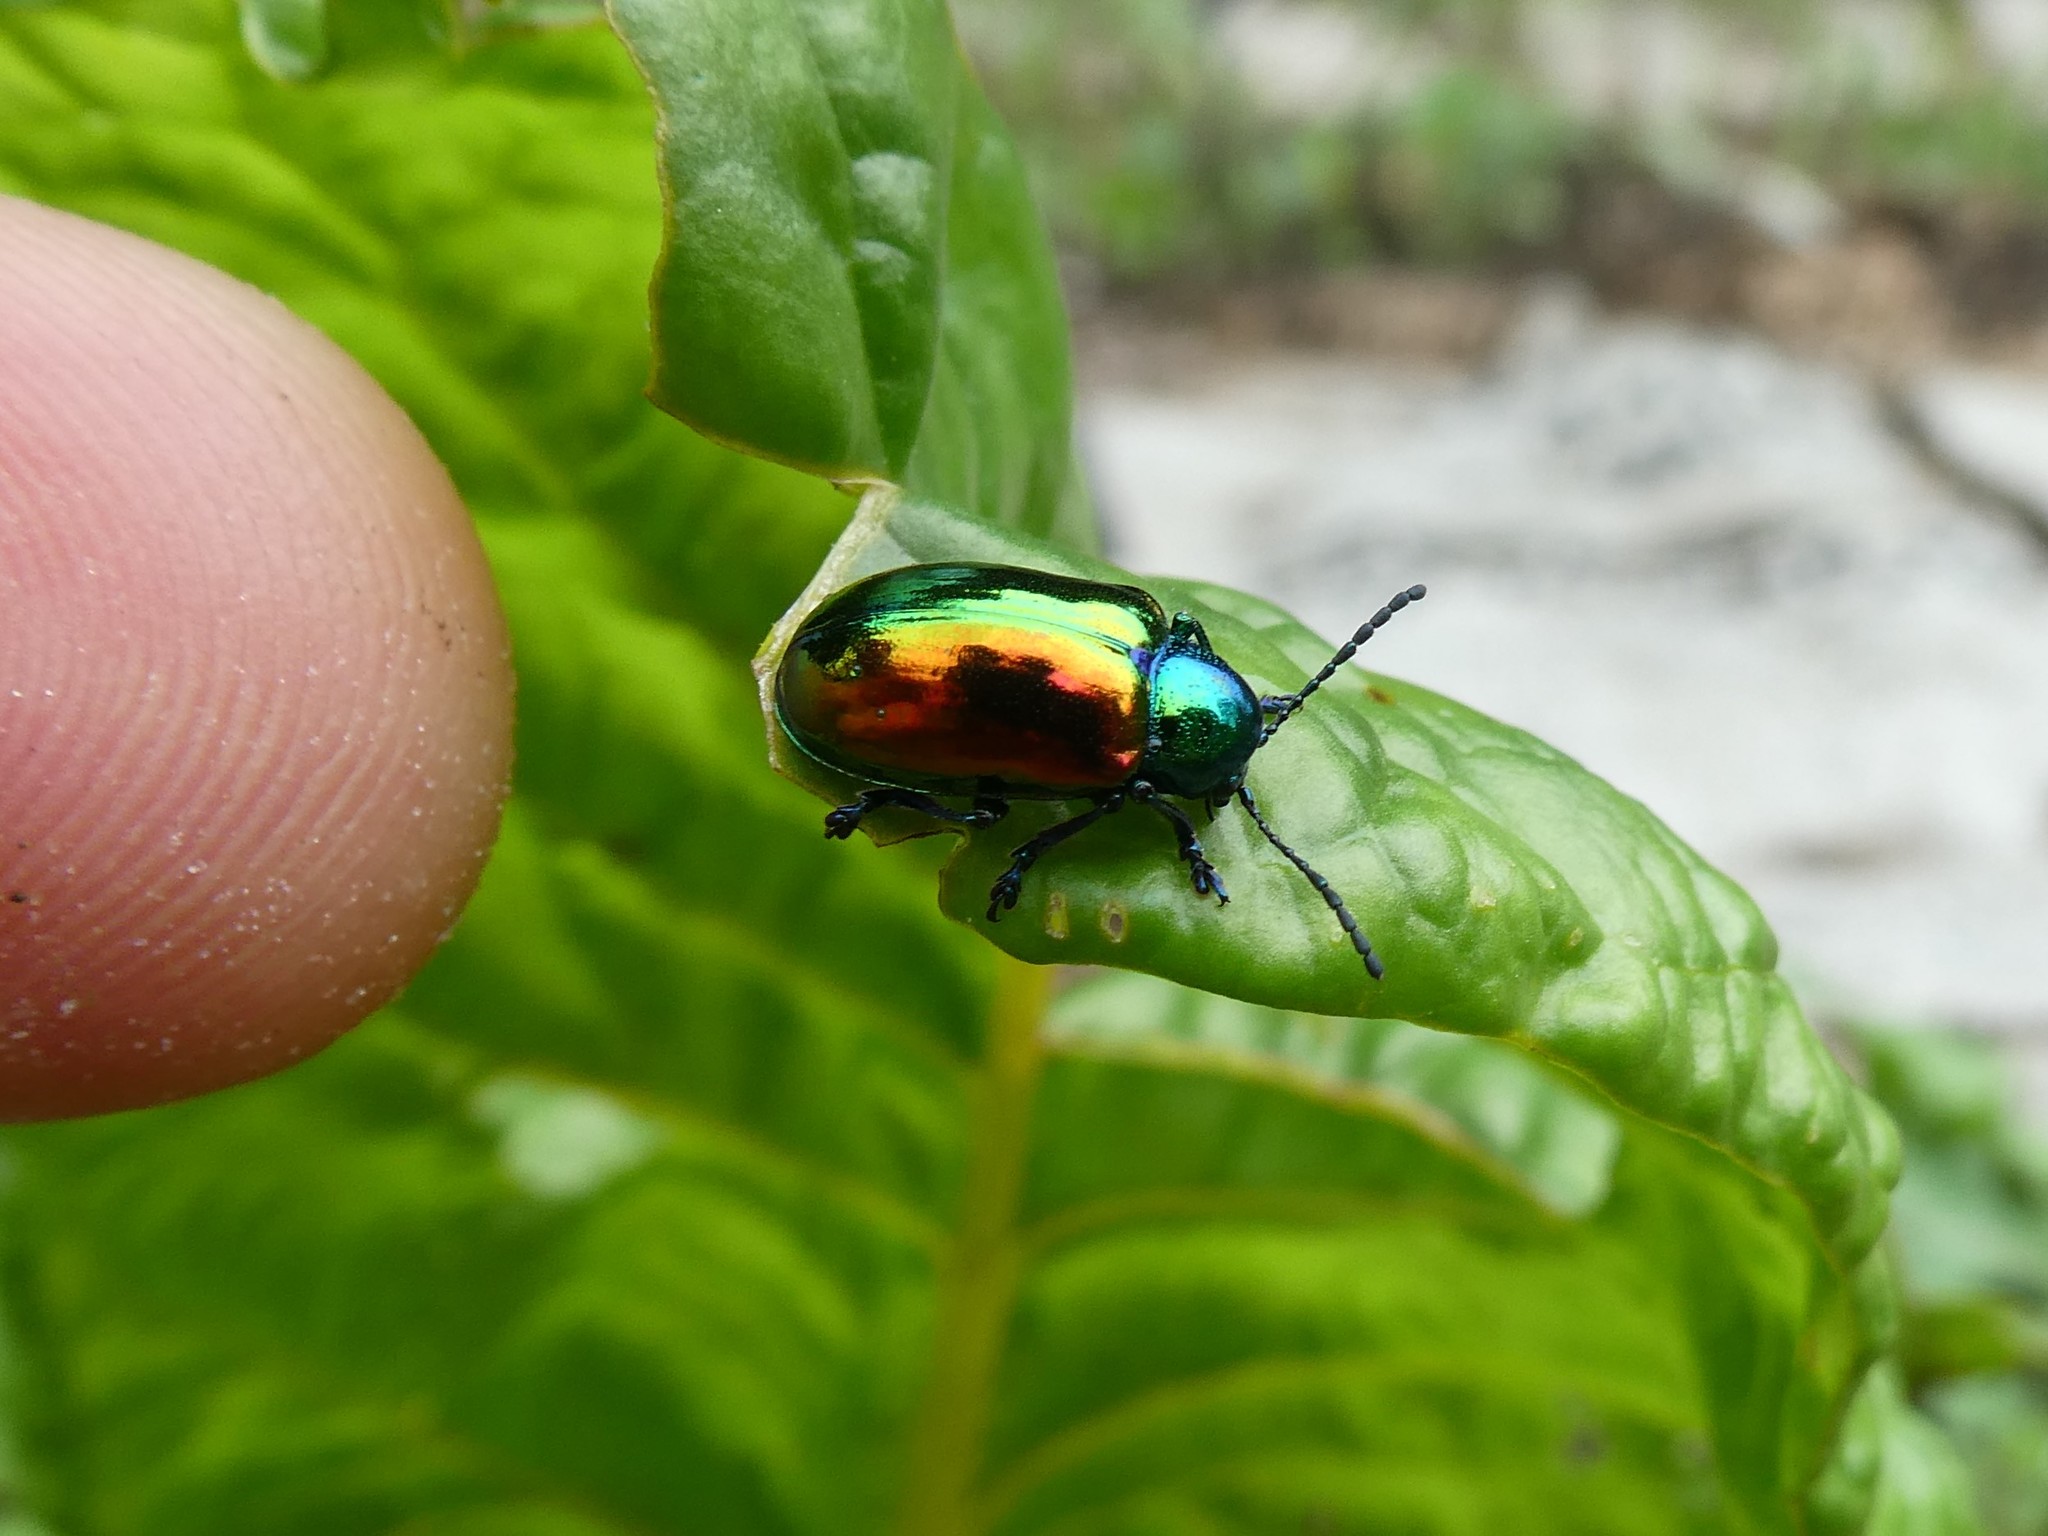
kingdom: Animalia
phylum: Arthropoda
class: Insecta
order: Coleoptera
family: Chrysomelidae
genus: Chrysochus
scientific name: Chrysochus auratus
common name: Dogbane leaf beetle
